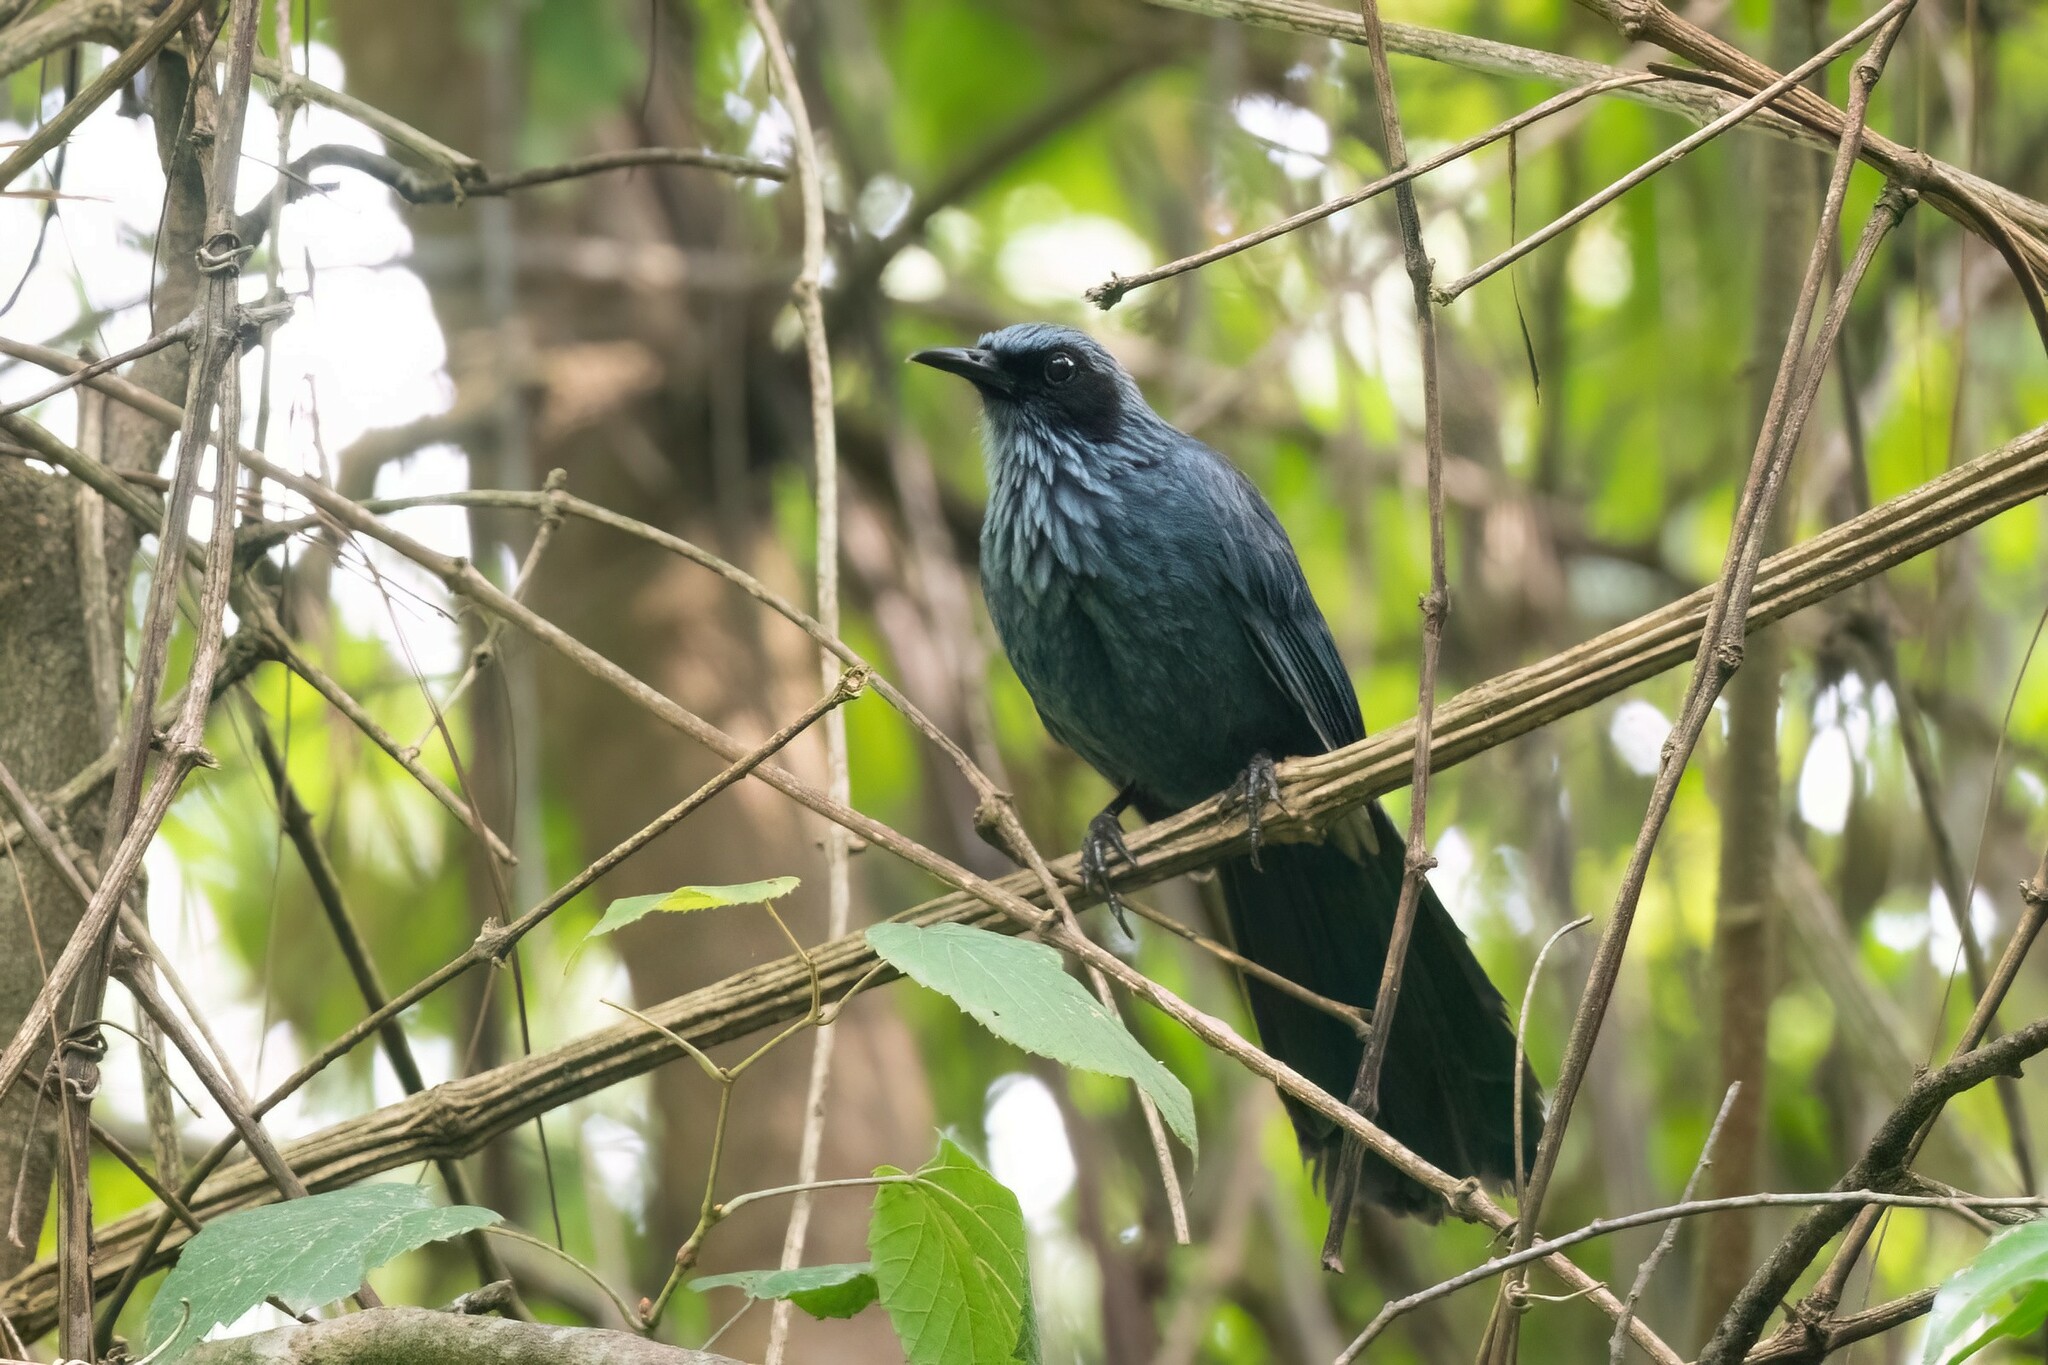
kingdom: Animalia
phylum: Chordata
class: Aves
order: Passeriformes
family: Mimidae
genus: Melanotis
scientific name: Melanotis caerulescens
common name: Blue mockingbird
